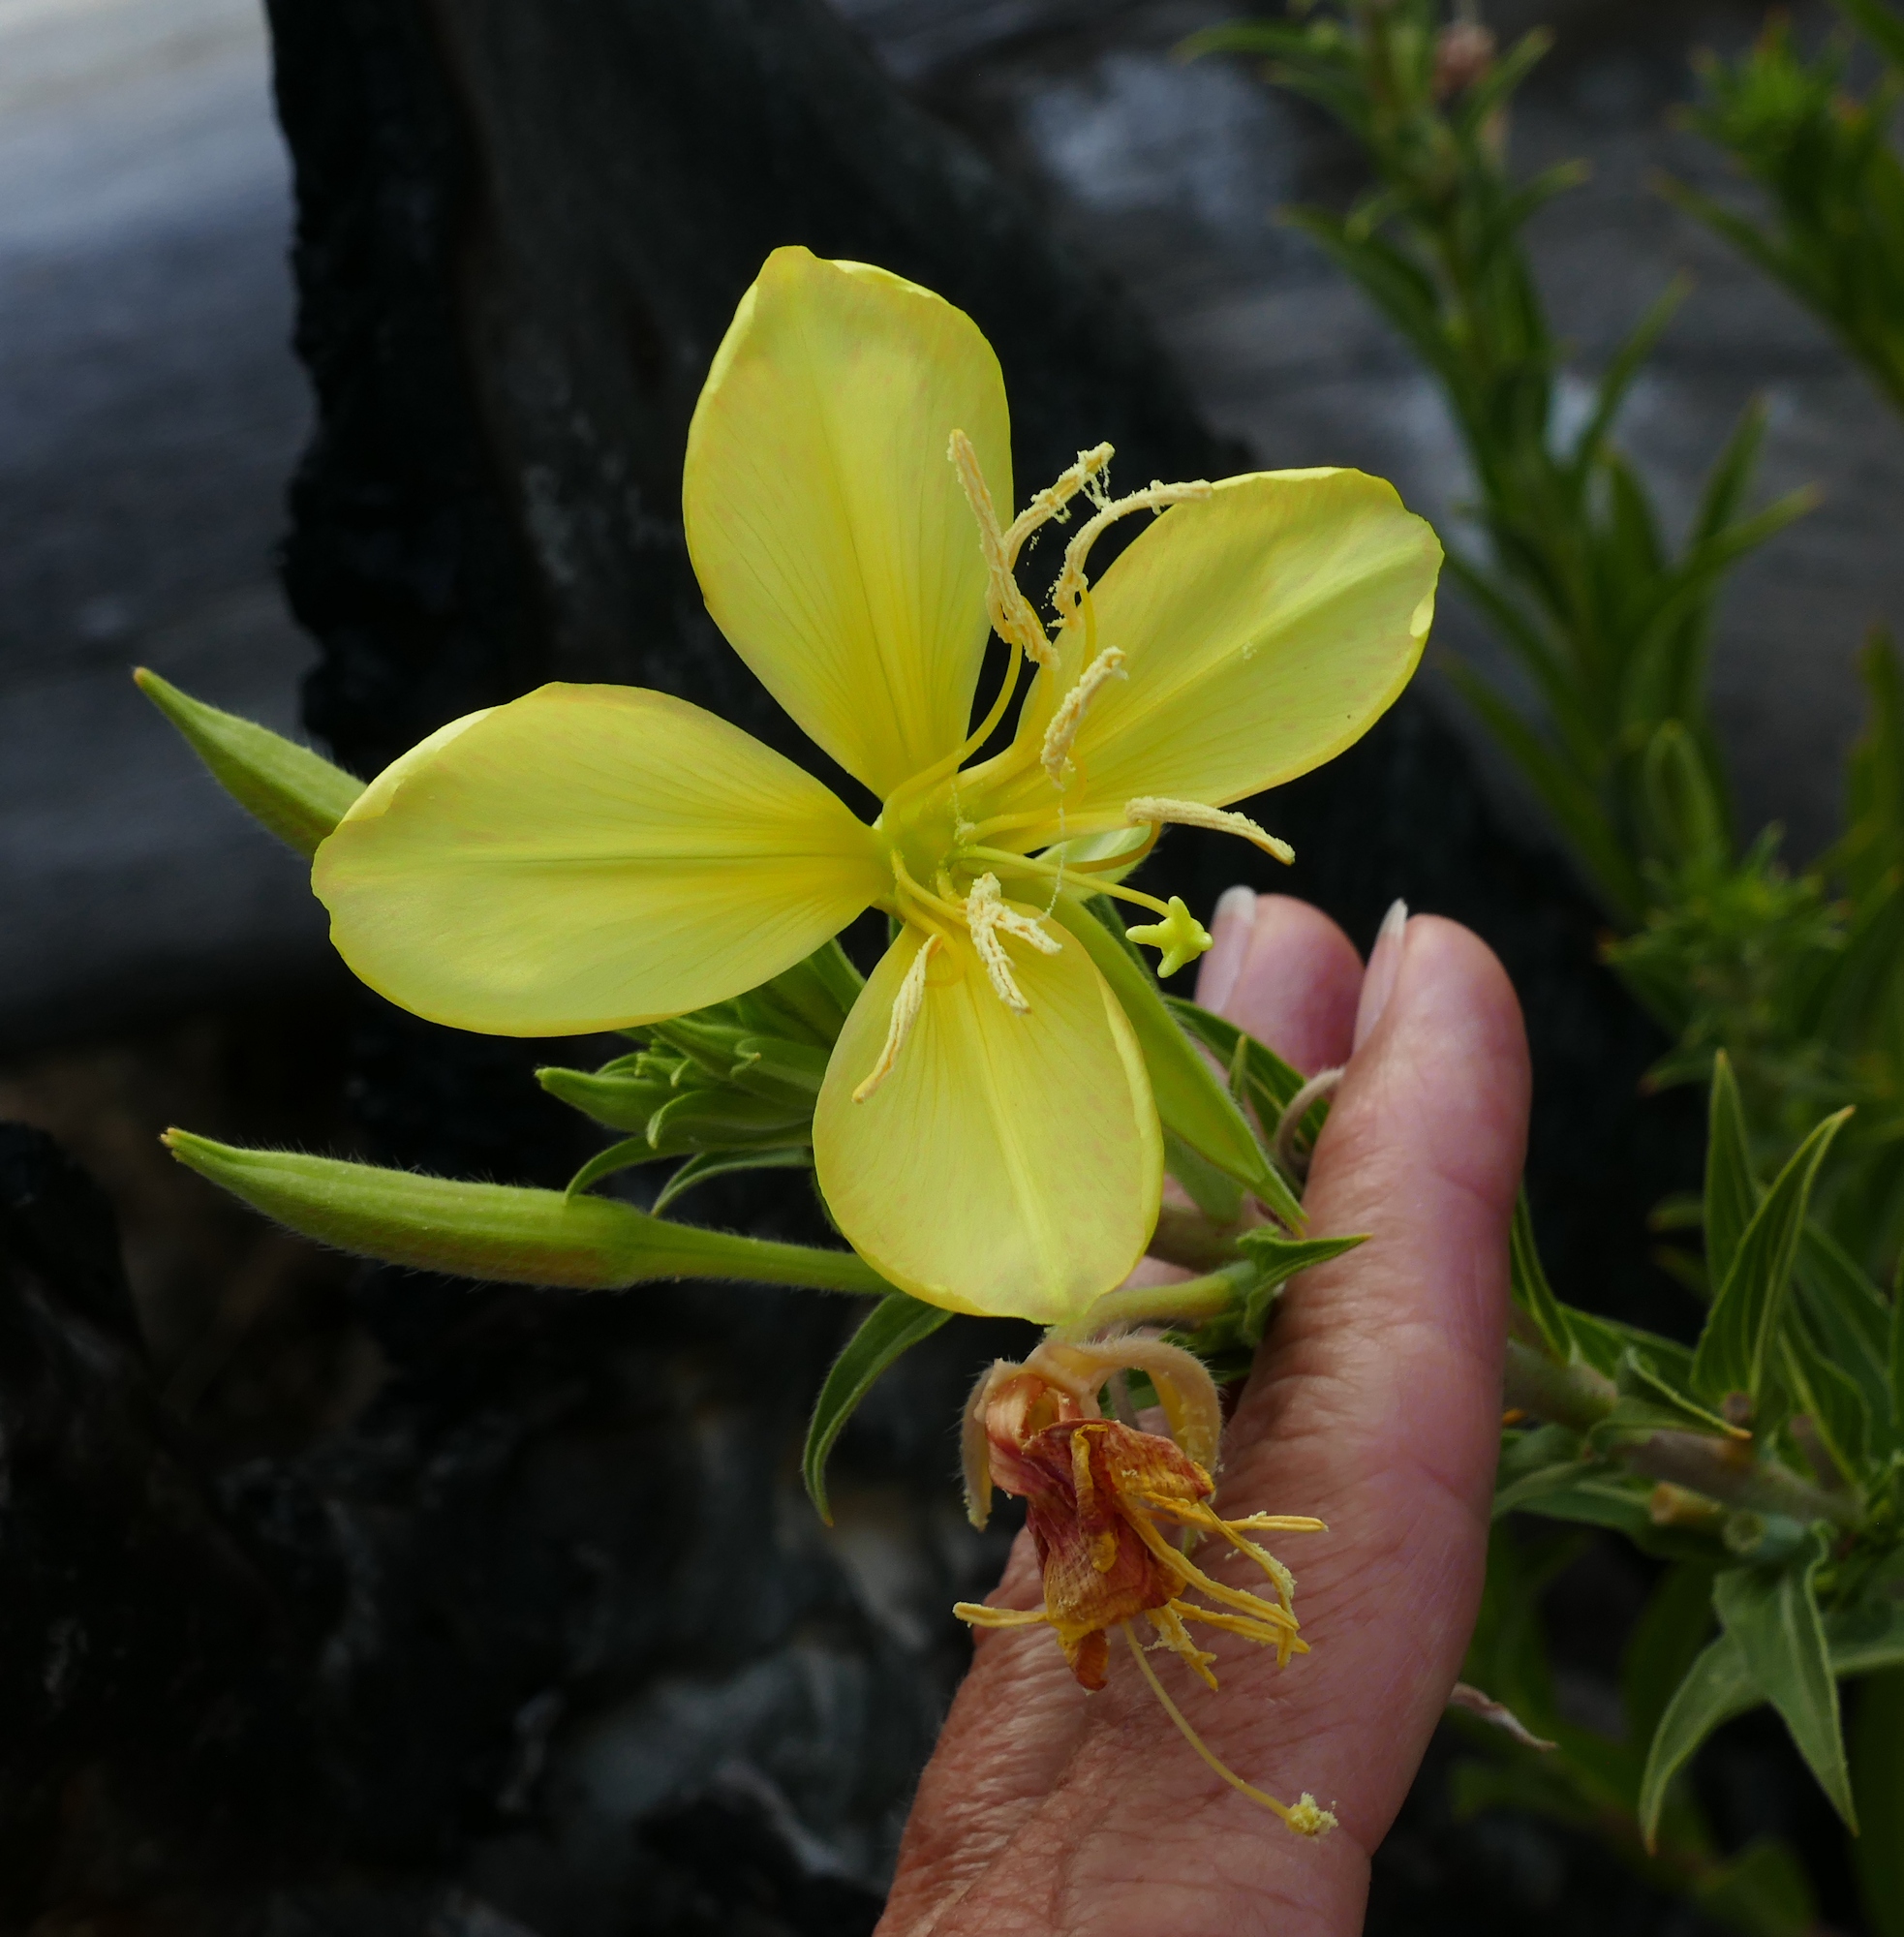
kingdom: Plantae
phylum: Tracheophyta
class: Magnoliopsida
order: Myrtales
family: Onagraceae
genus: Oenothera
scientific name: Oenothera elata
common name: Hooker's evening-primrose
